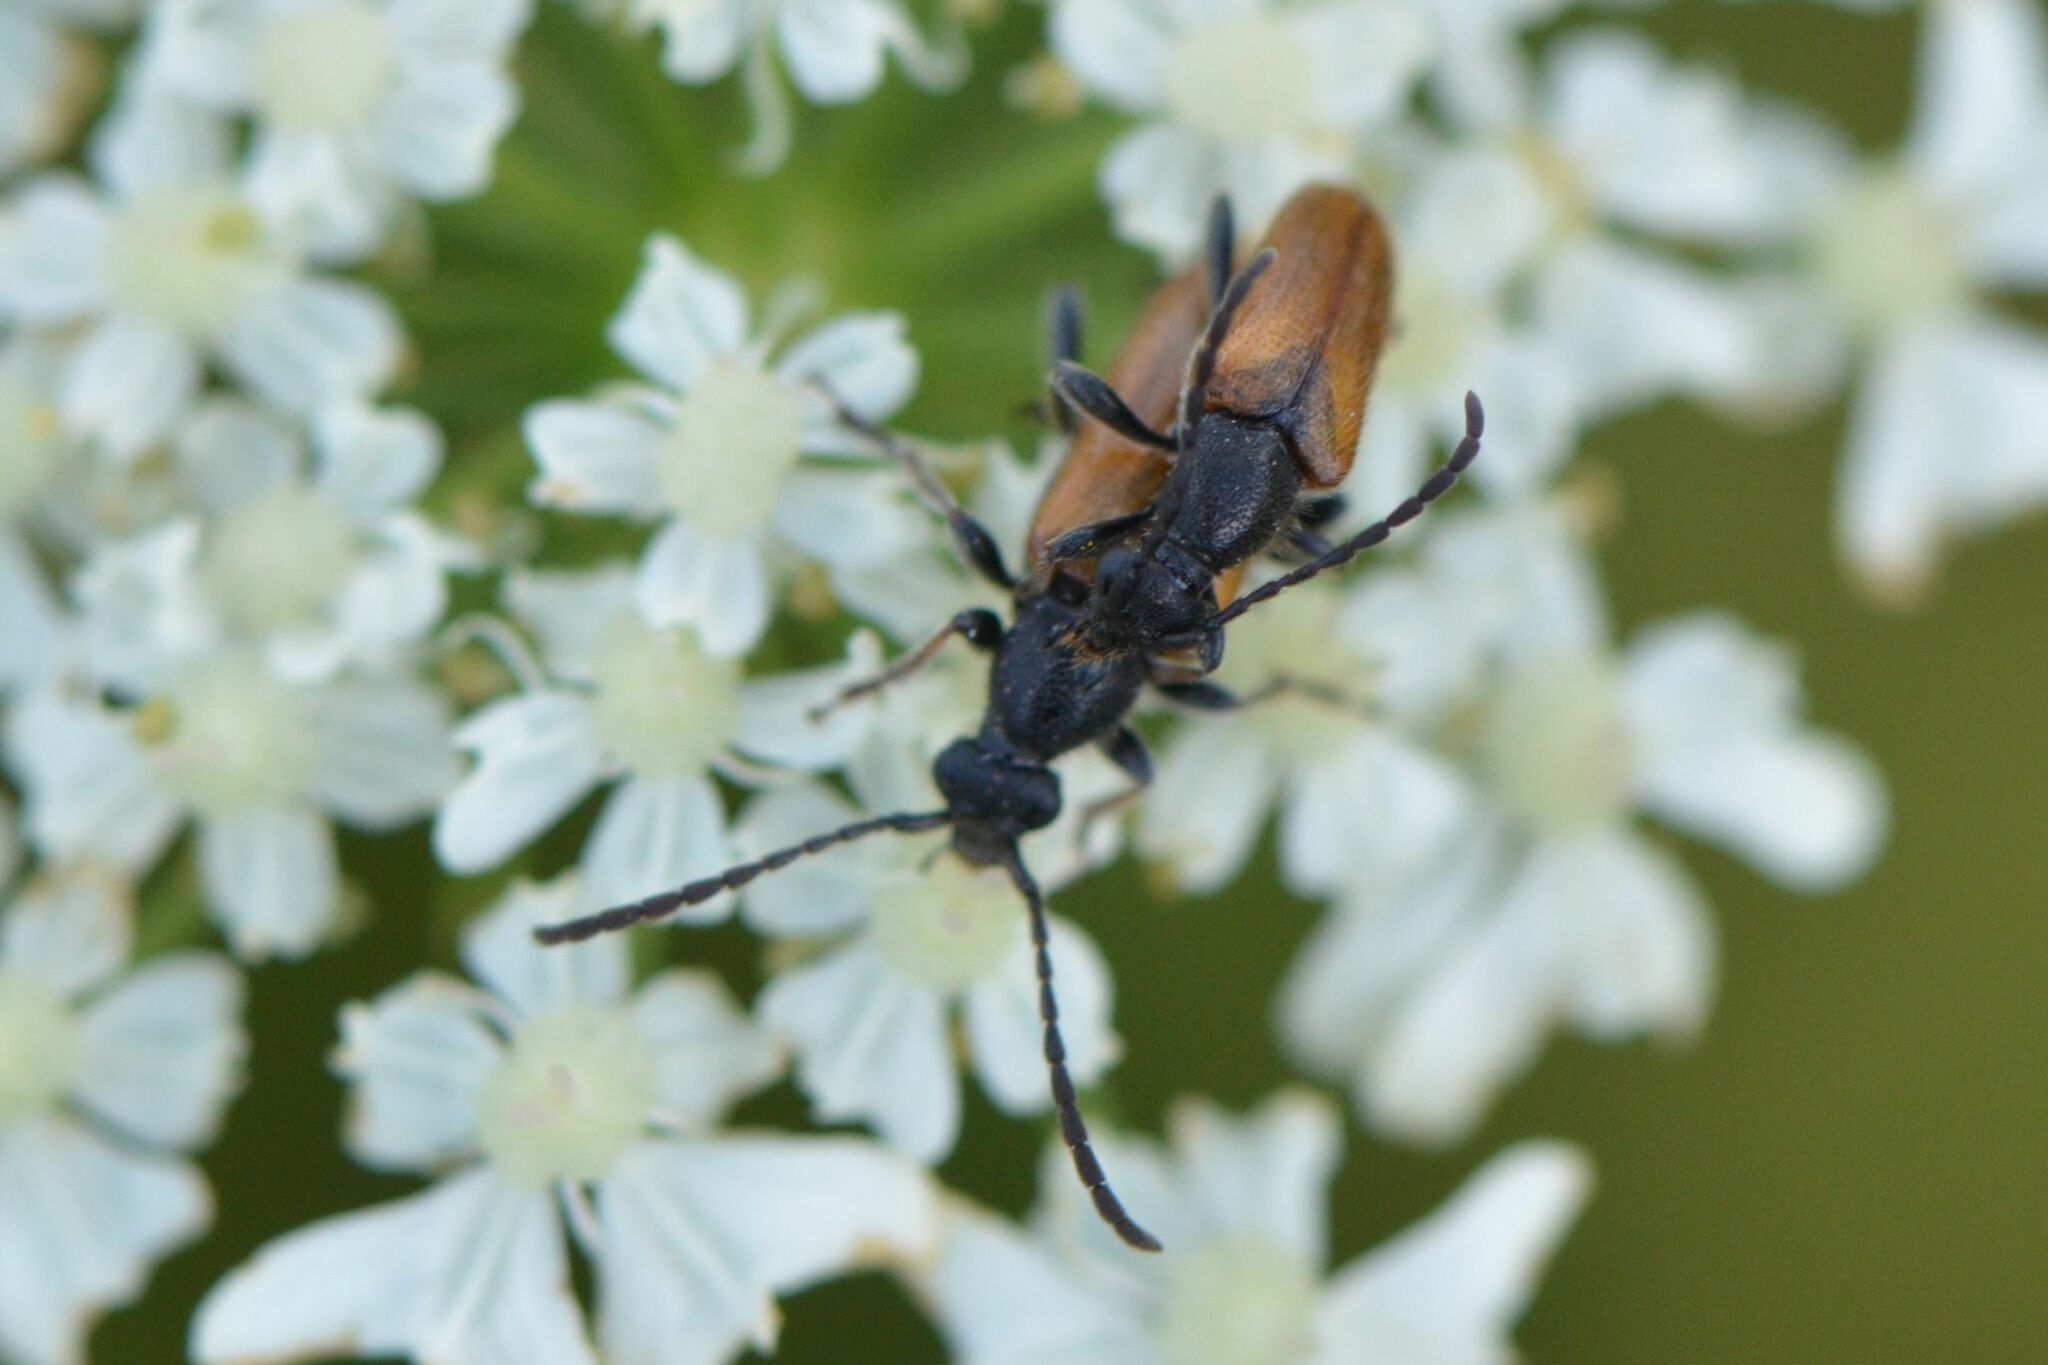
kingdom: Animalia
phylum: Arthropoda
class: Insecta
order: Coleoptera
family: Cerambycidae
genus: Pseudovadonia
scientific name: Pseudovadonia livida
